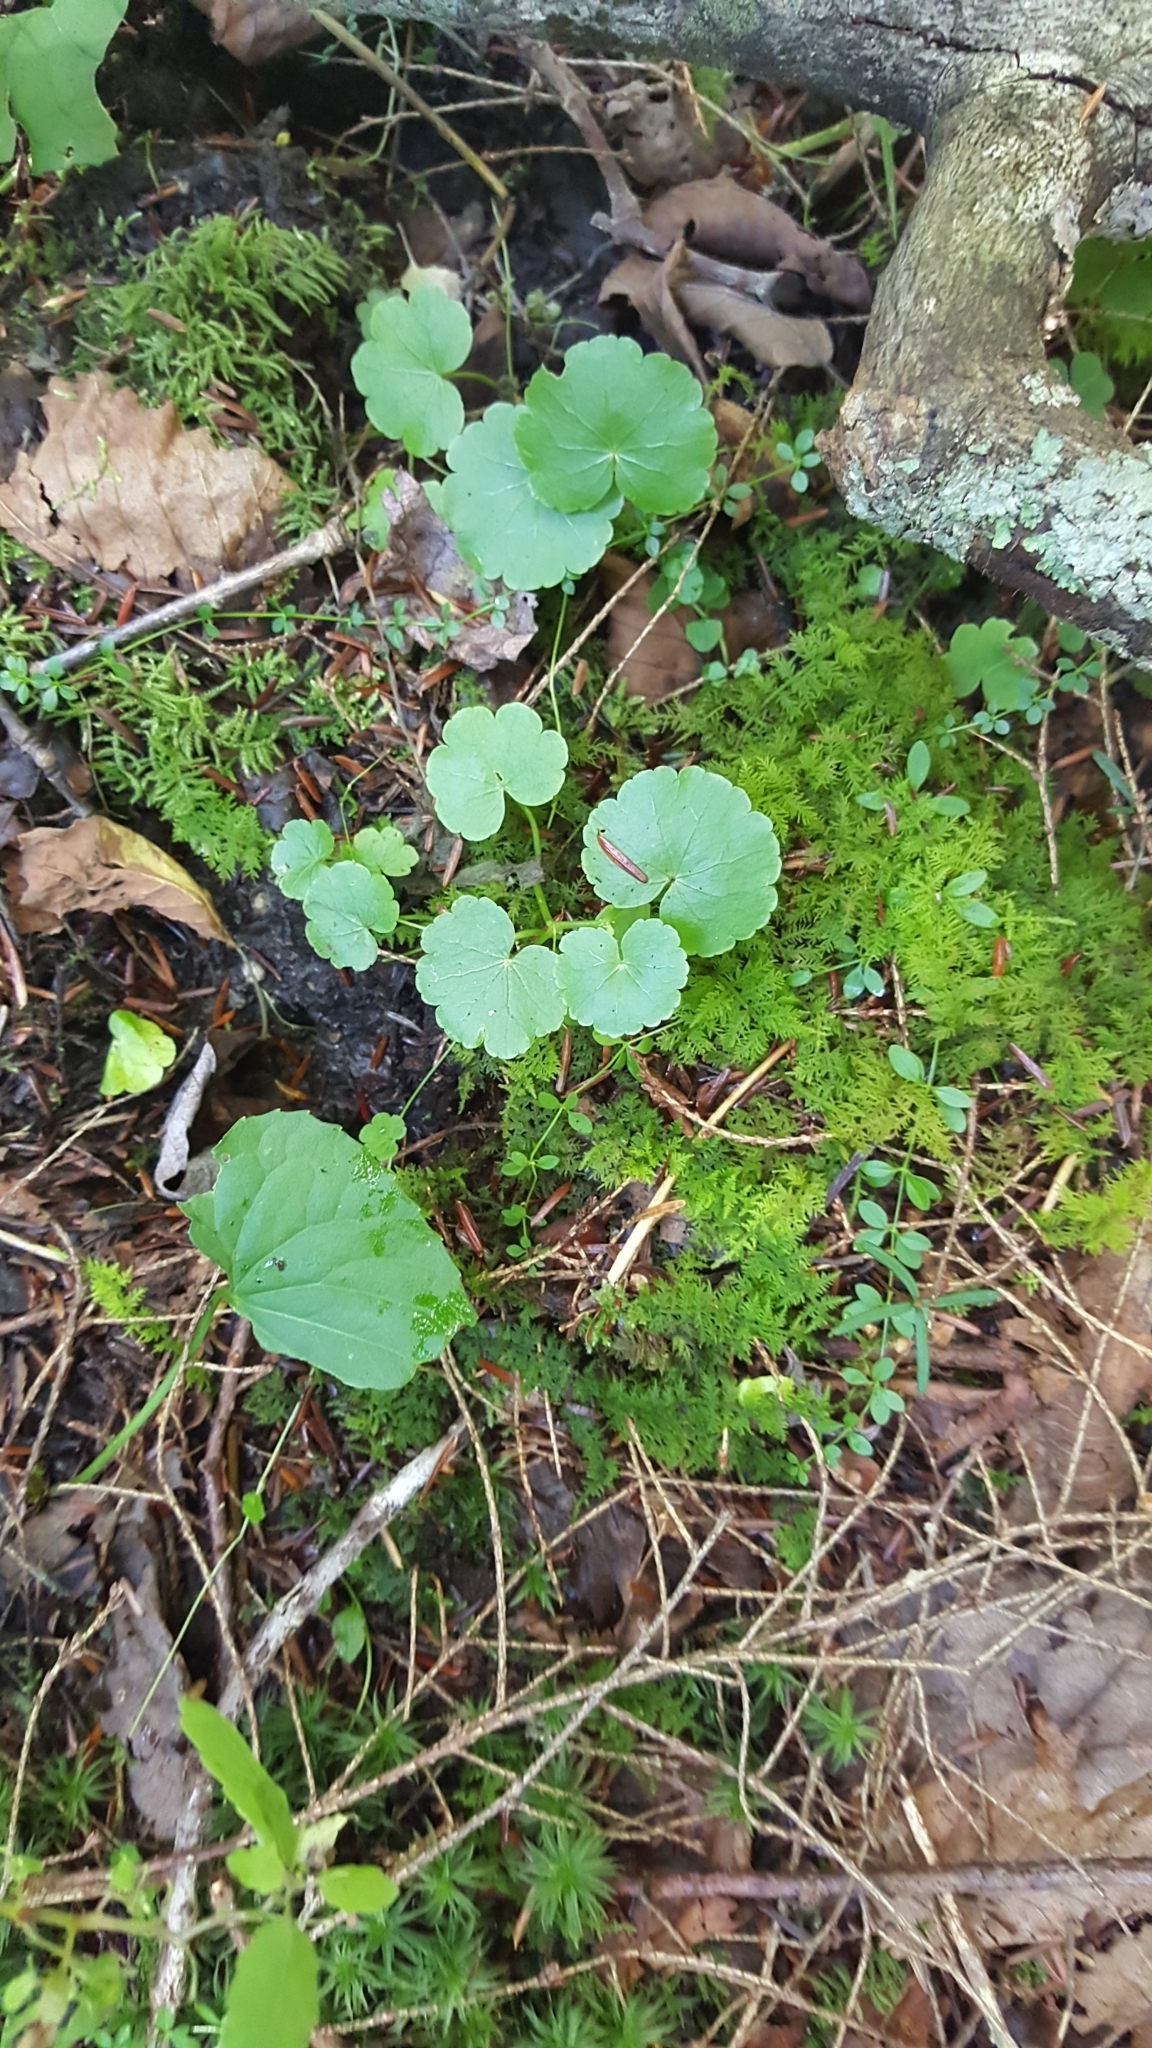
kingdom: Plantae
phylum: Tracheophyta
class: Magnoliopsida
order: Apiales
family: Araliaceae
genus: Hydrocotyle
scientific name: Hydrocotyle americana
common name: American water-pennywort
